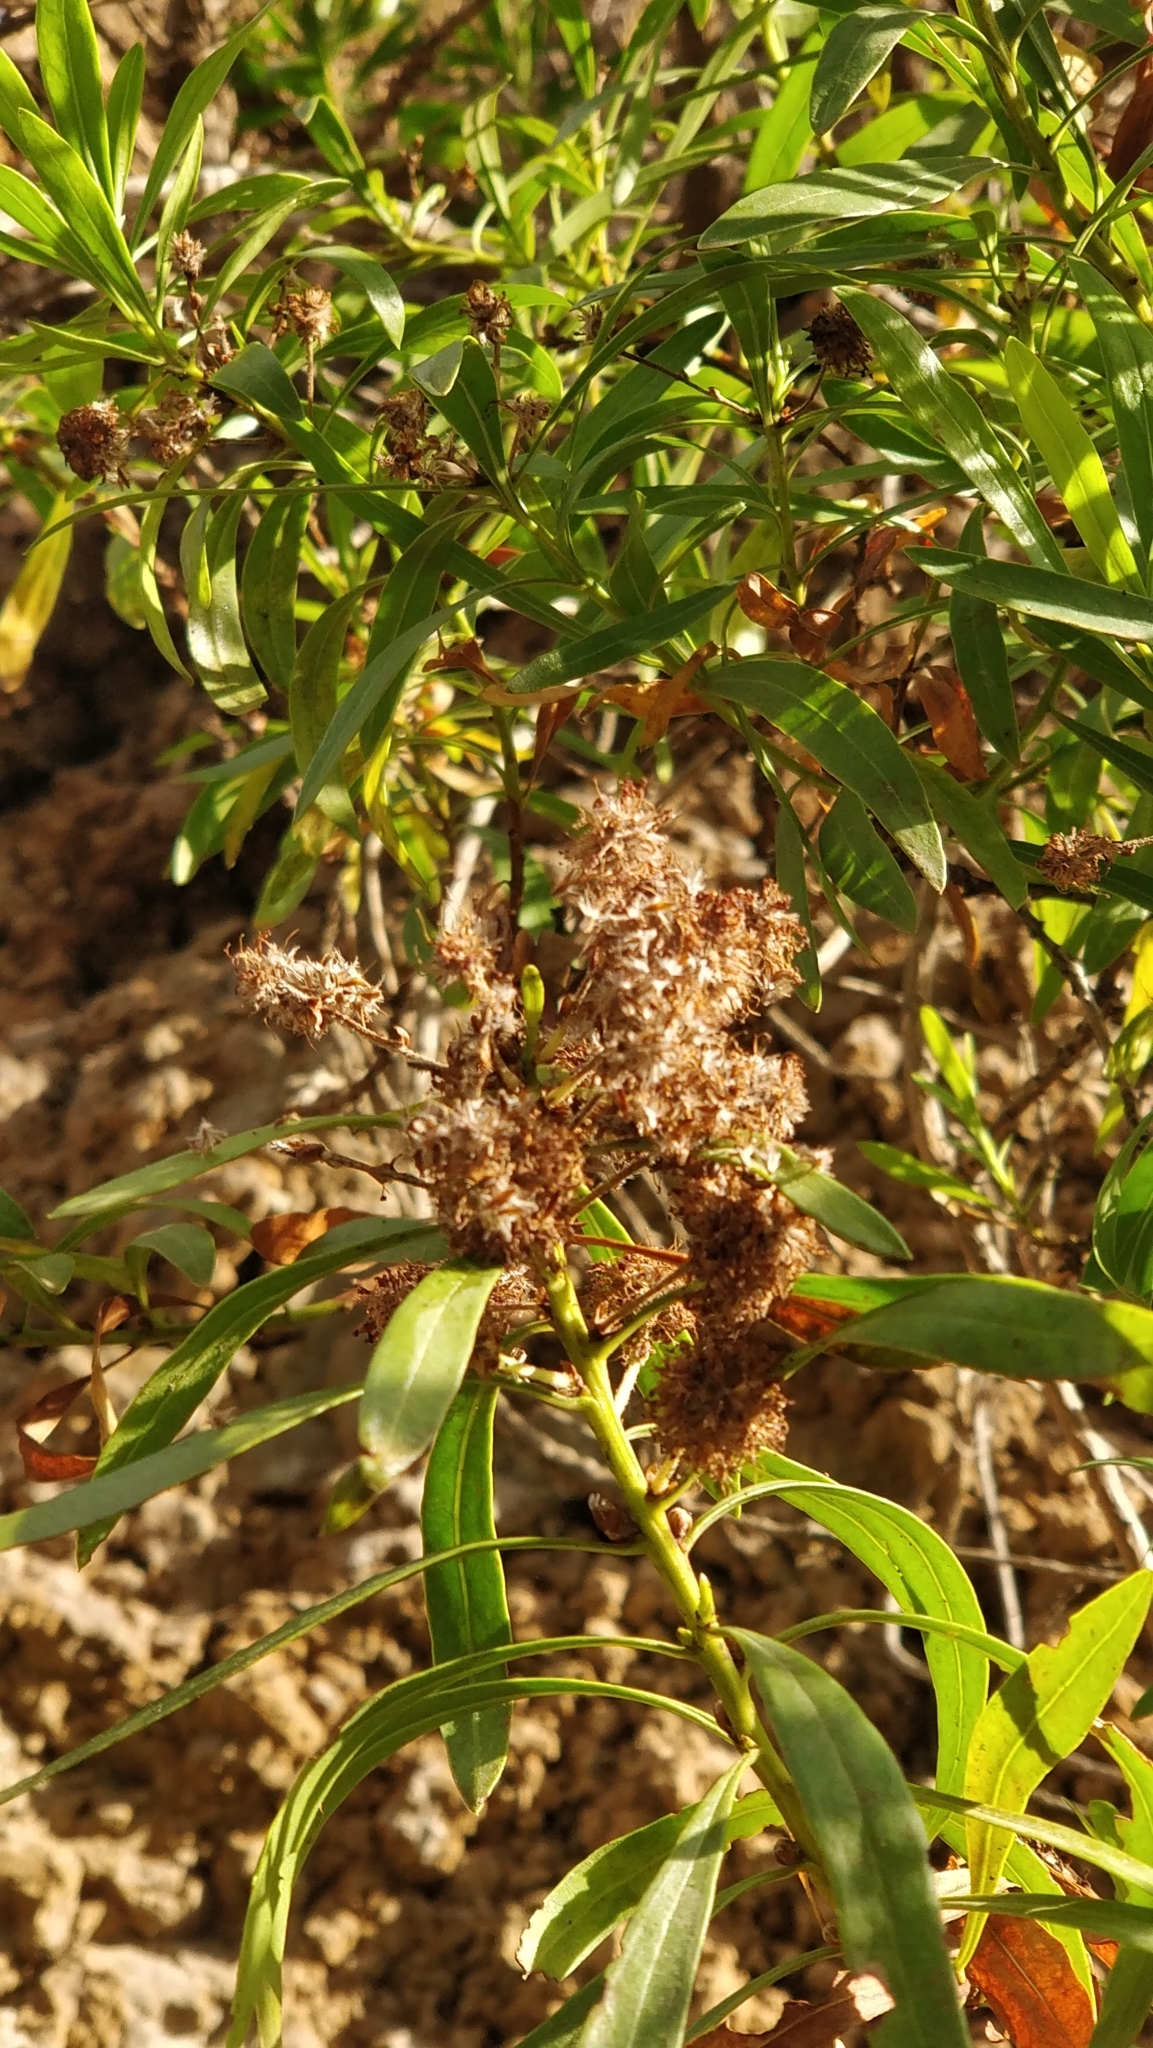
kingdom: Plantae
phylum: Tracheophyta
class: Magnoliopsida
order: Lamiales
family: Plantaginaceae
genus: Globularia
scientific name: Globularia salicina
